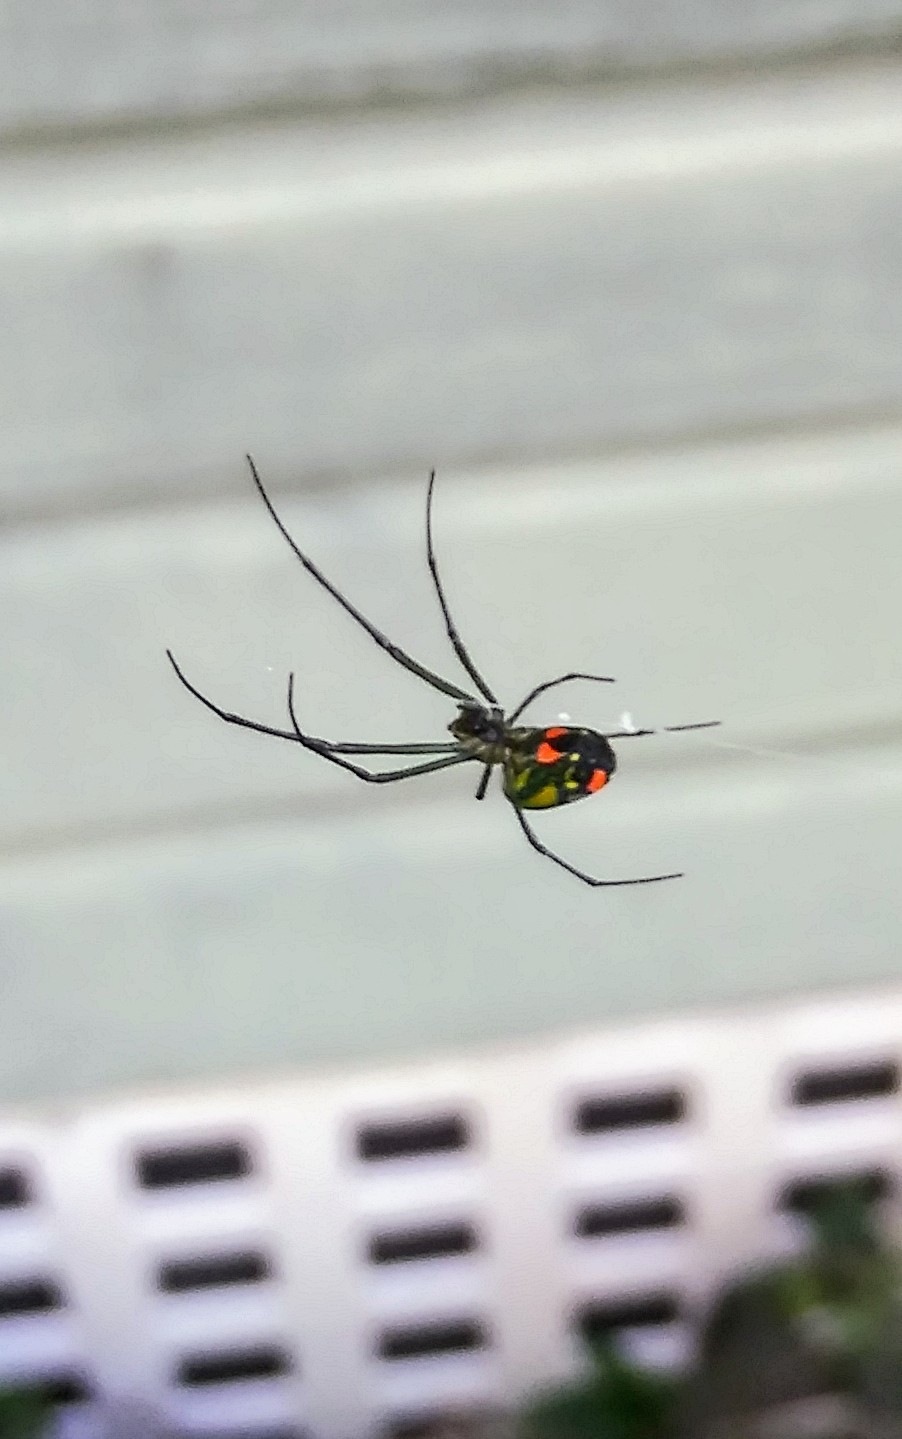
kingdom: Animalia
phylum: Arthropoda
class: Arachnida
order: Araneae
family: Tetragnathidae
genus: Leucauge
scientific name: Leucauge argyrobapta
